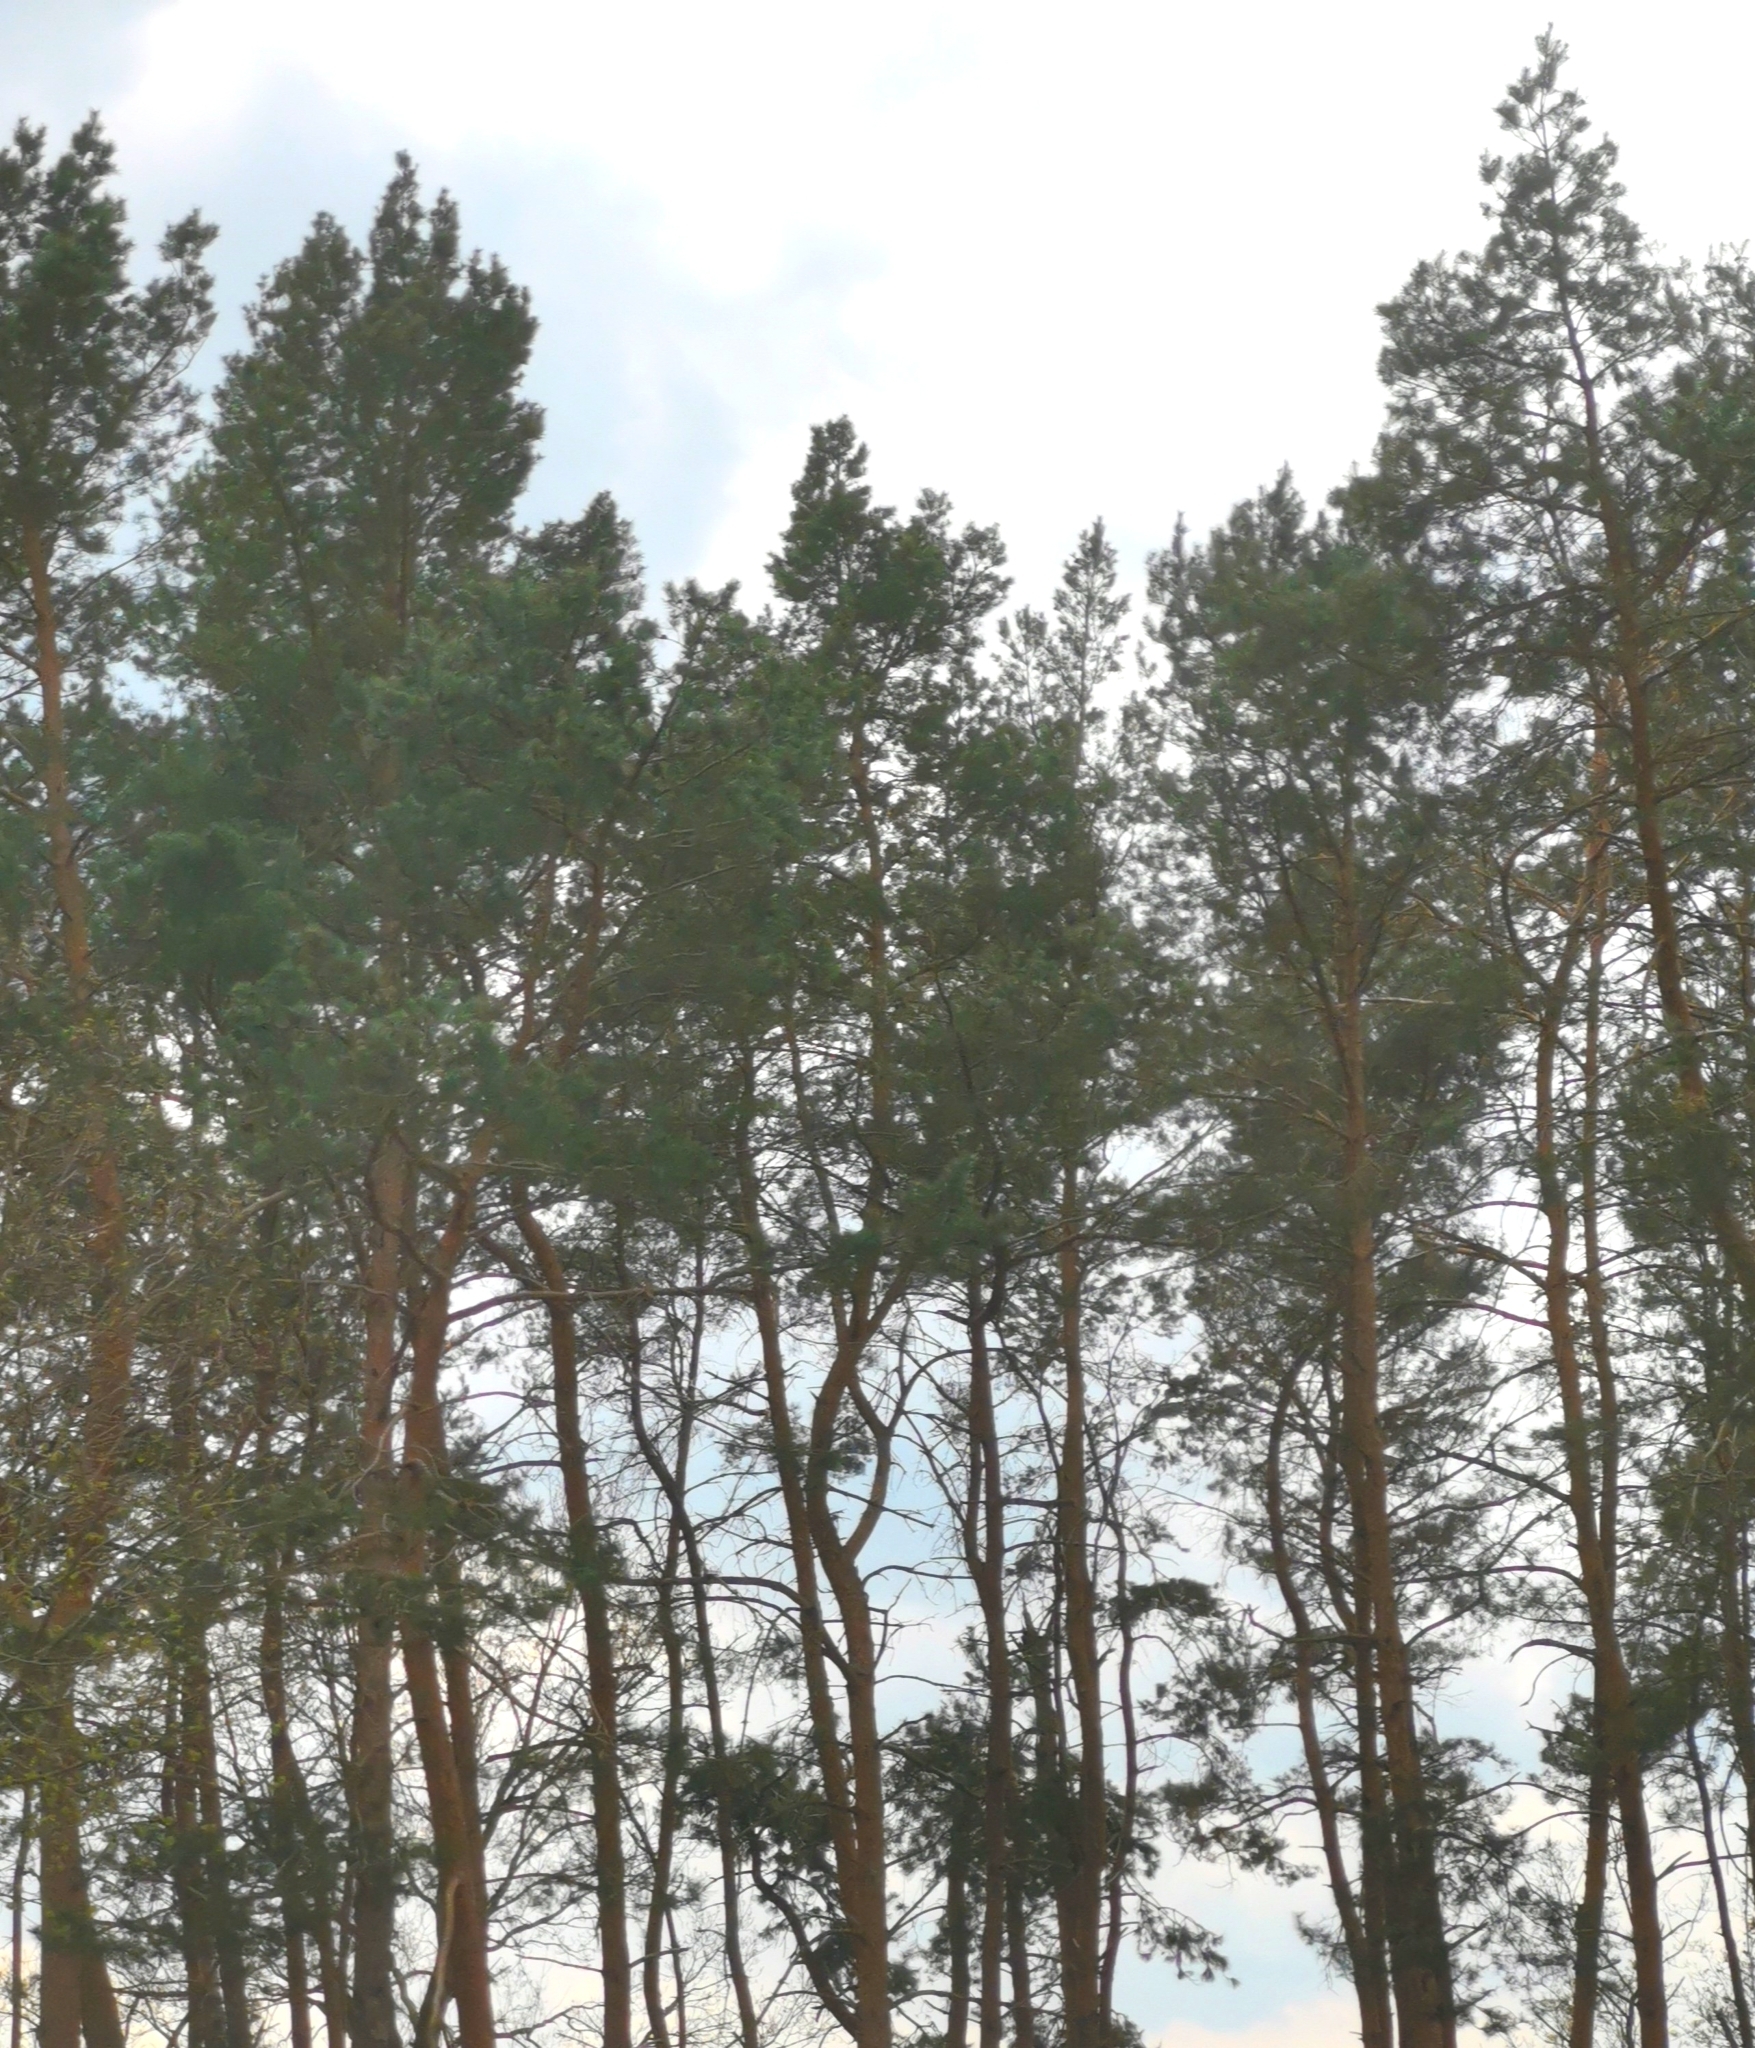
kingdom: Plantae
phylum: Tracheophyta
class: Pinopsida
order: Pinales
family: Pinaceae
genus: Pinus
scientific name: Pinus sylvestris
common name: Scots pine
